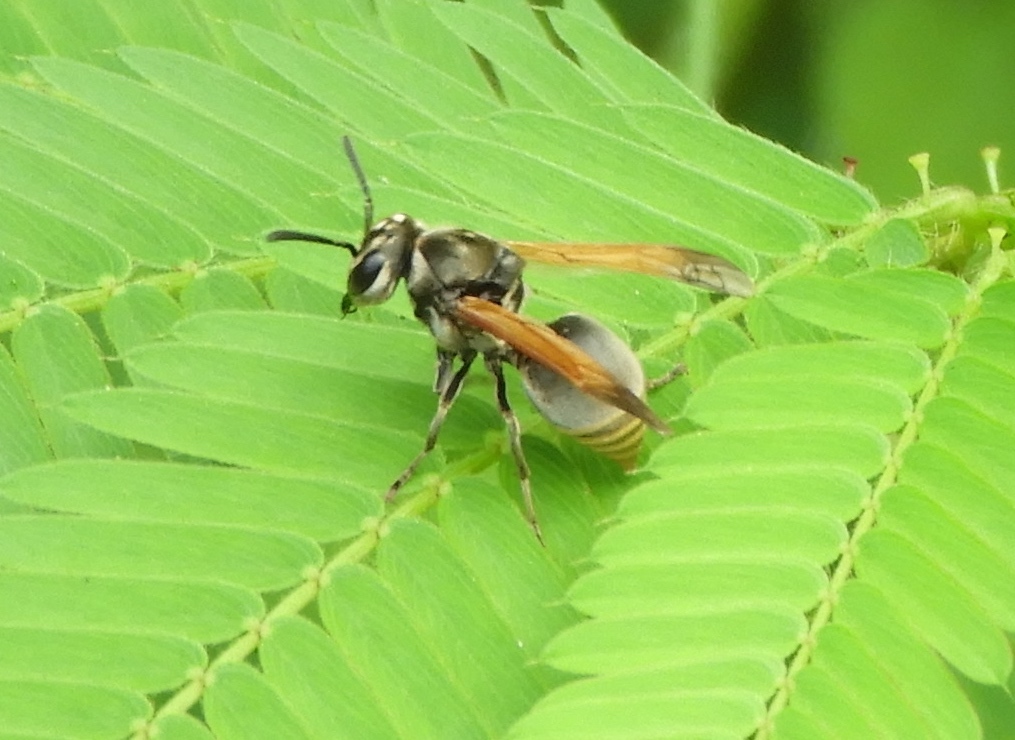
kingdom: Animalia
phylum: Arthropoda
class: Insecta
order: Hymenoptera
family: Vespidae
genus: Brachygastra
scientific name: Brachygastra mellifica
